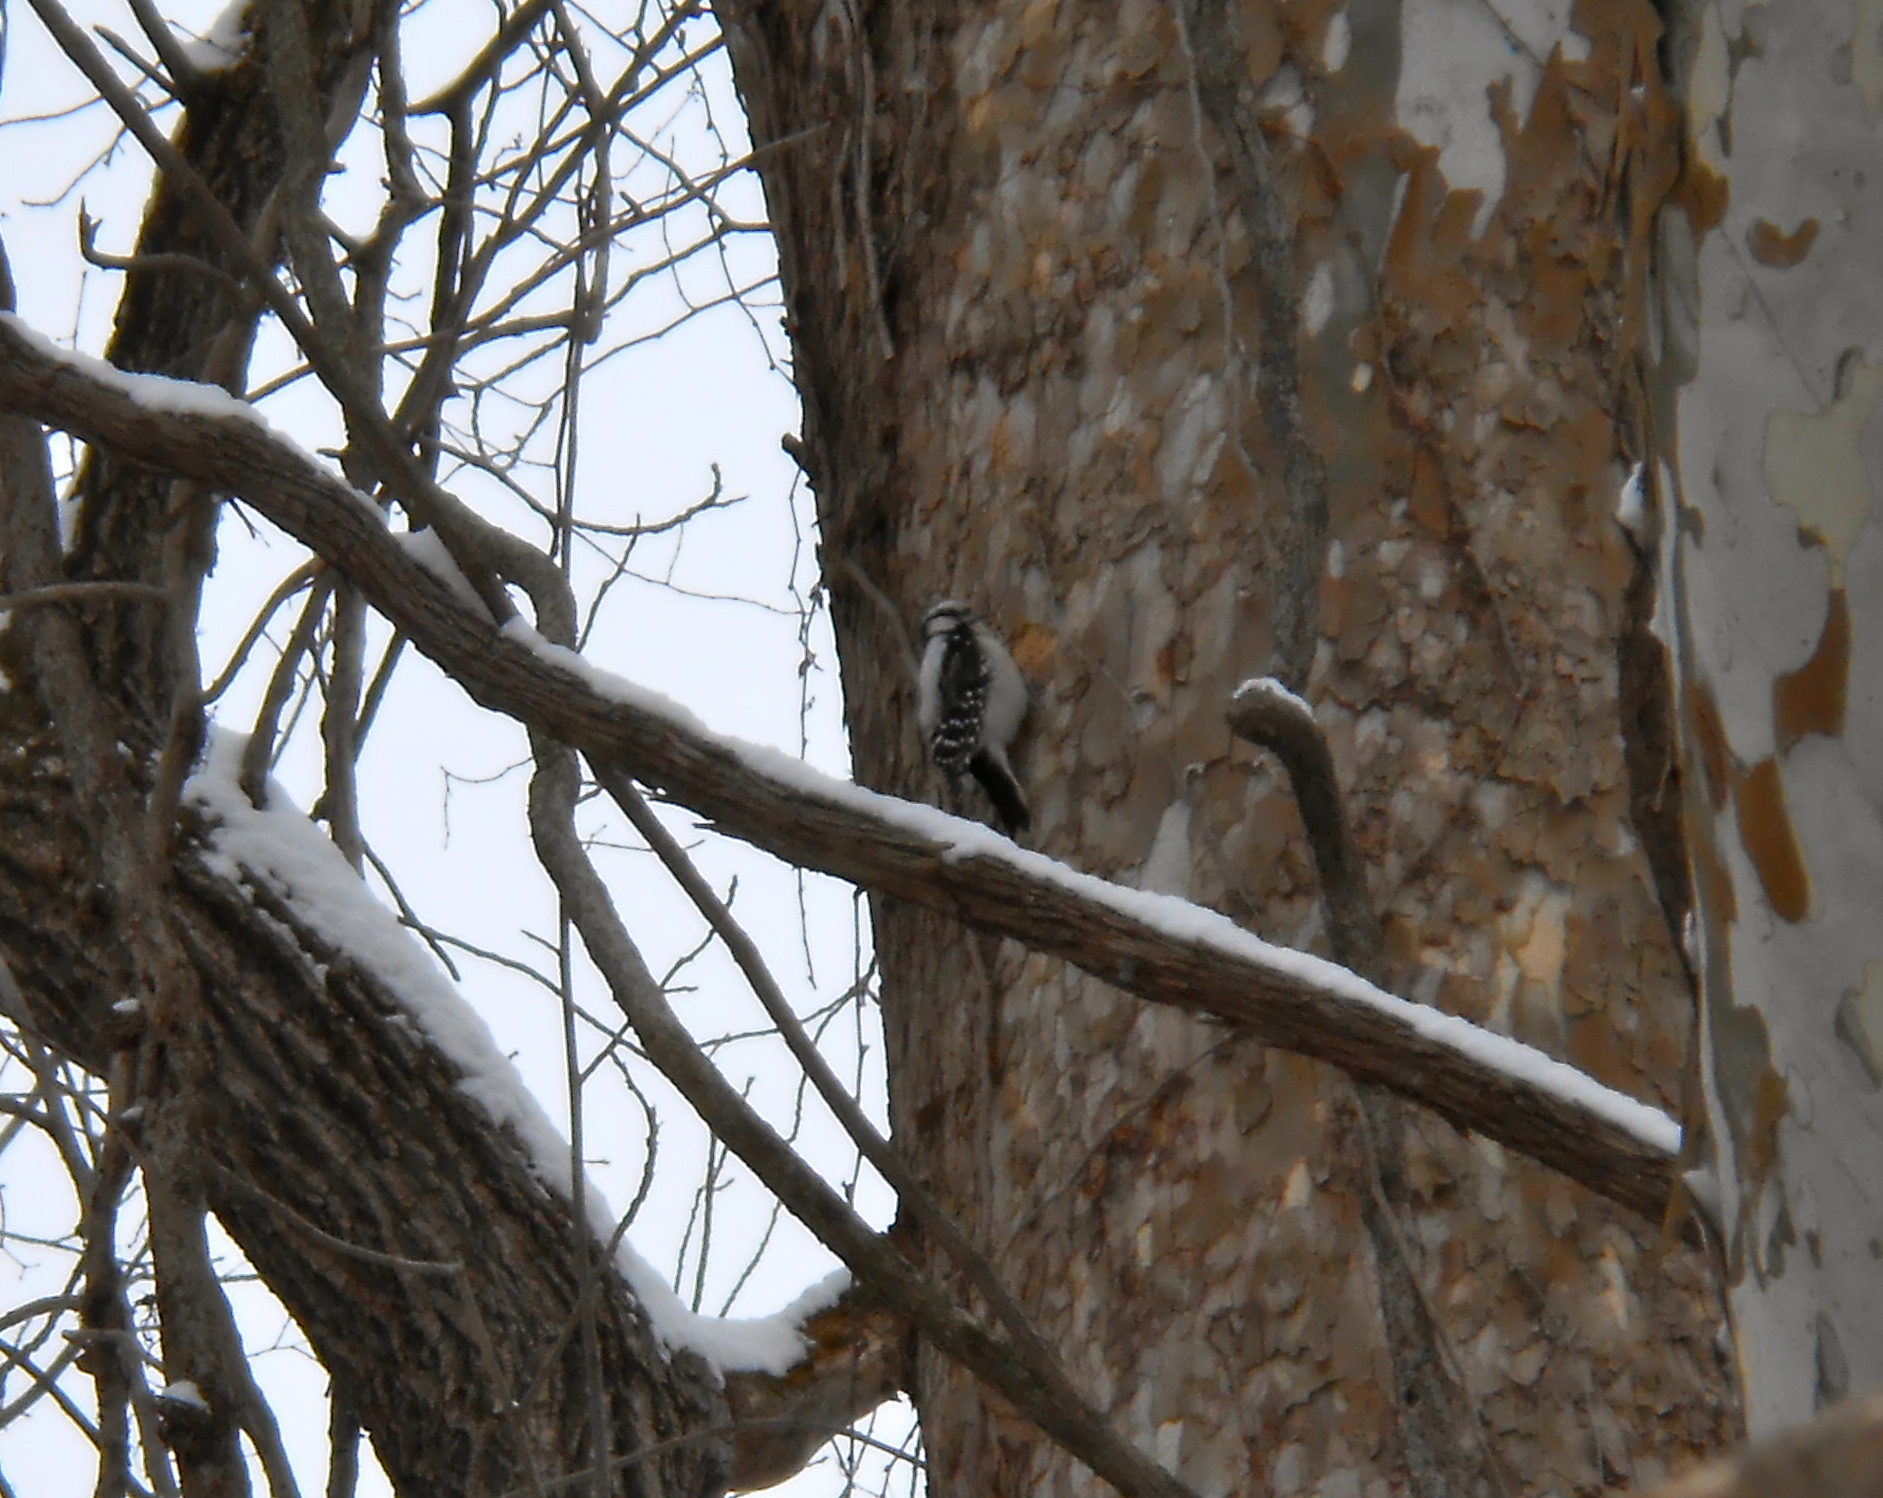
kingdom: Animalia
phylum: Chordata
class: Aves
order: Piciformes
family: Picidae
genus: Dryobates
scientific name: Dryobates pubescens
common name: Downy woodpecker
